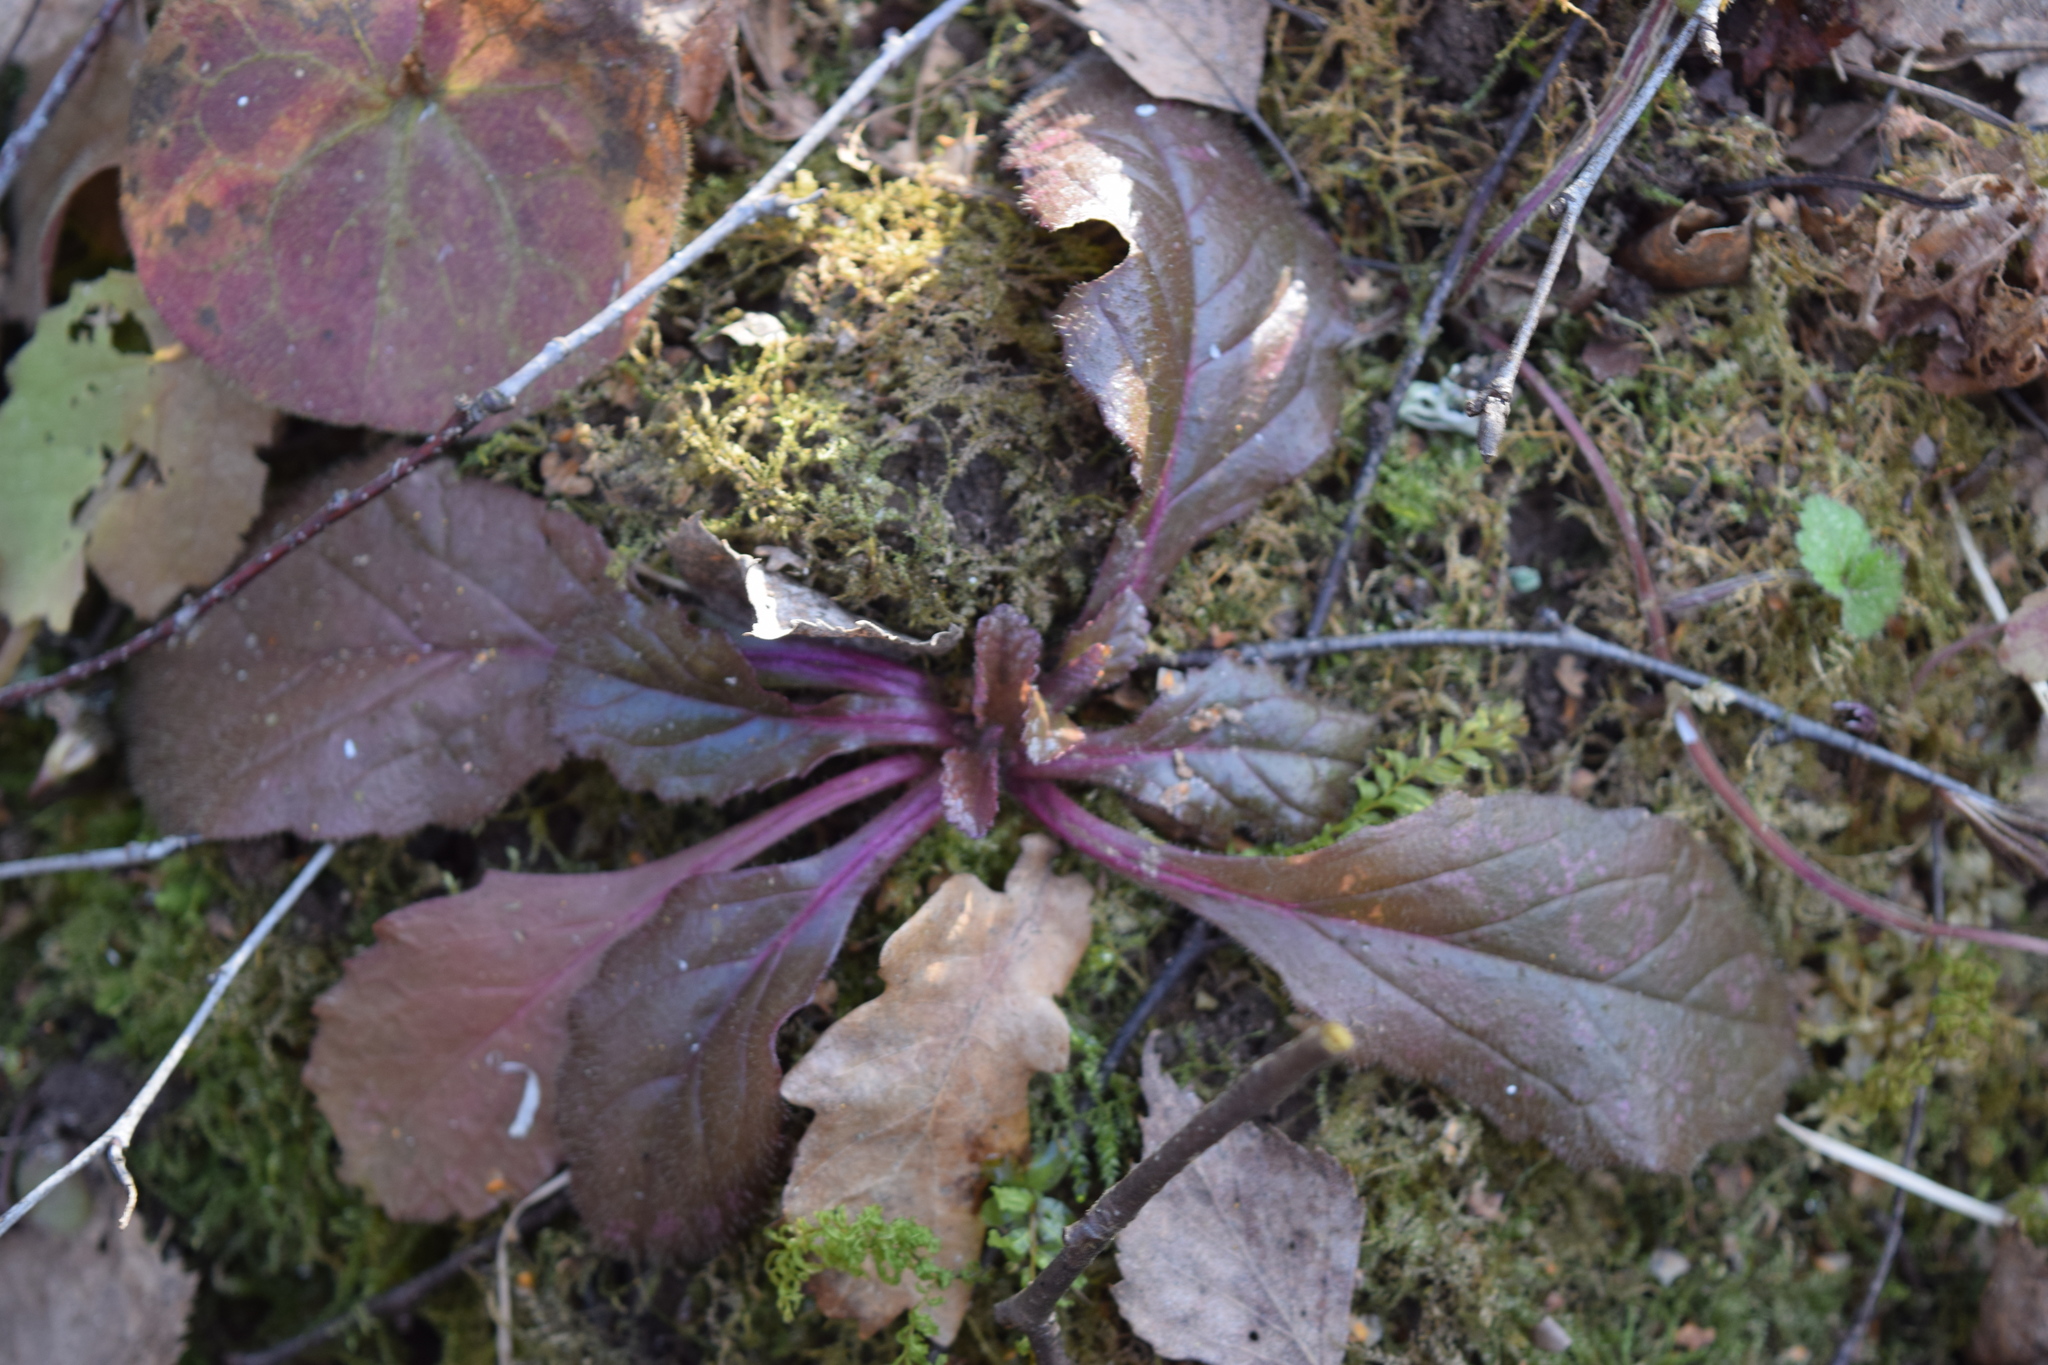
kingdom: Plantae
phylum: Tracheophyta
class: Magnoliopsida
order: Lamiales
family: Lamiaceae
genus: Ajuga
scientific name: Ajuga reptans
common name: Bugle
